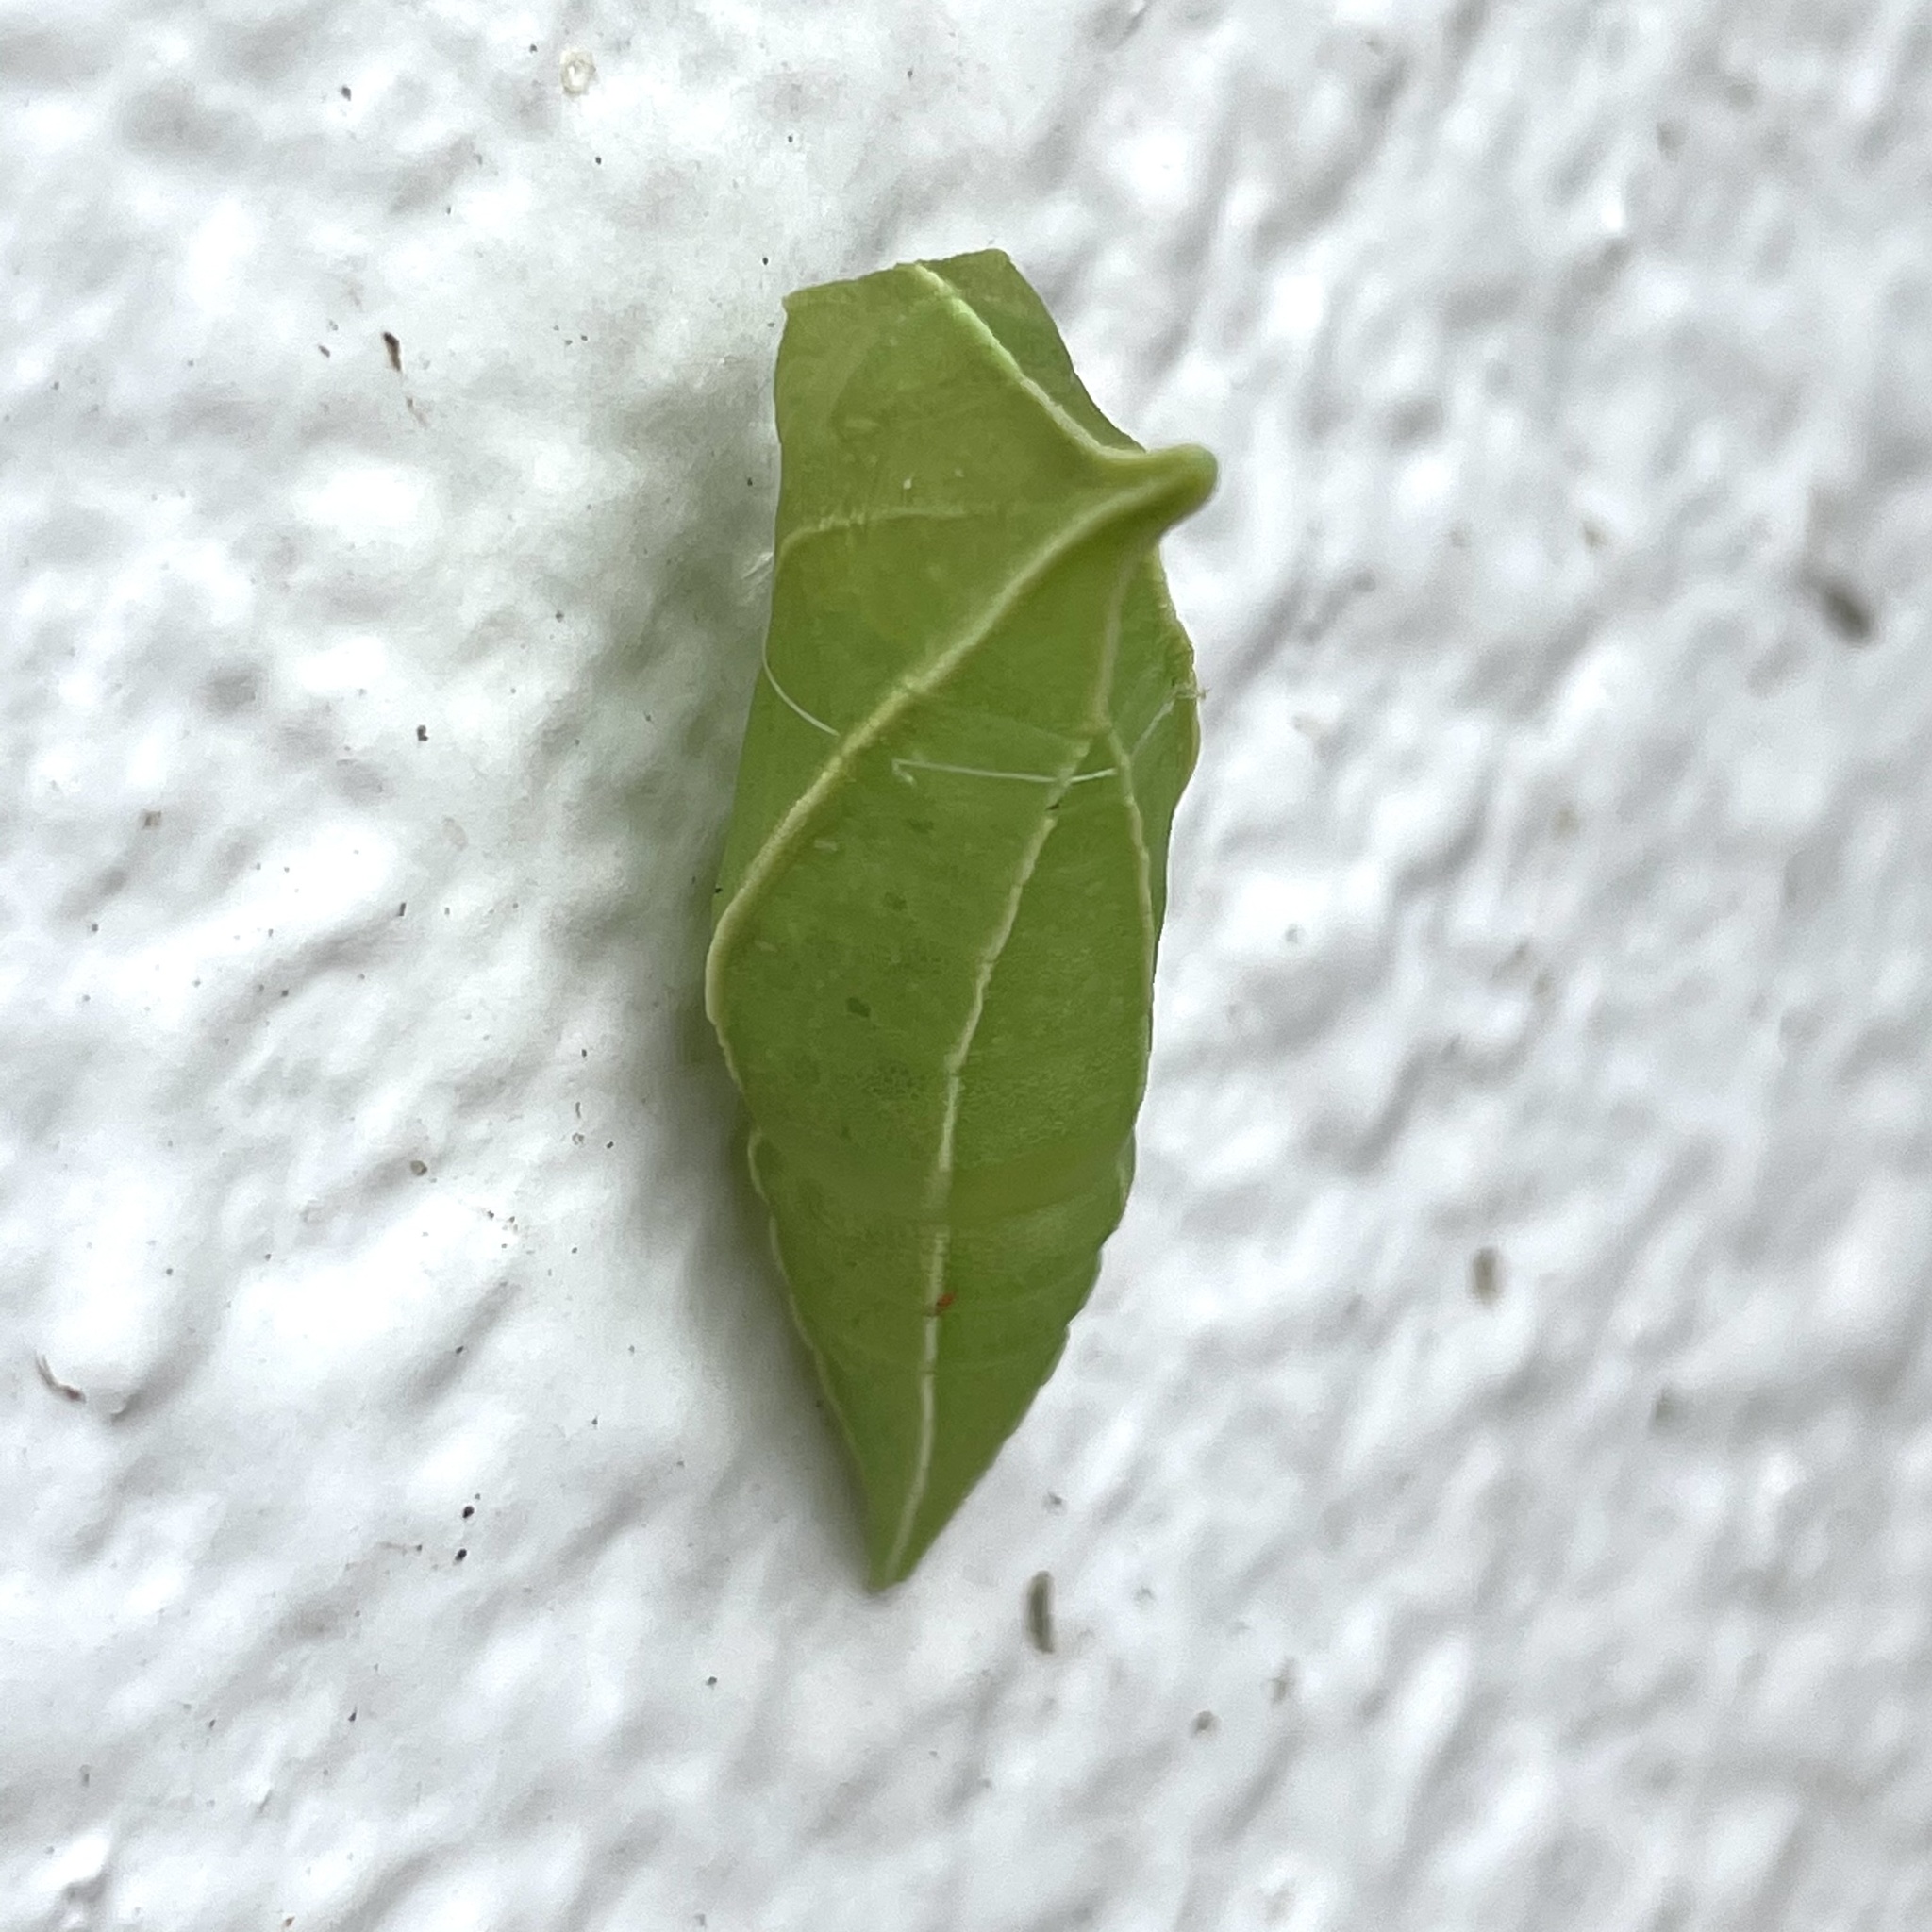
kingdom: Fungi
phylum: Ascomycota
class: Sordariomycetes
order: Microascales
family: Microascaceae
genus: Graphium
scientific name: Graphium sarpedon
